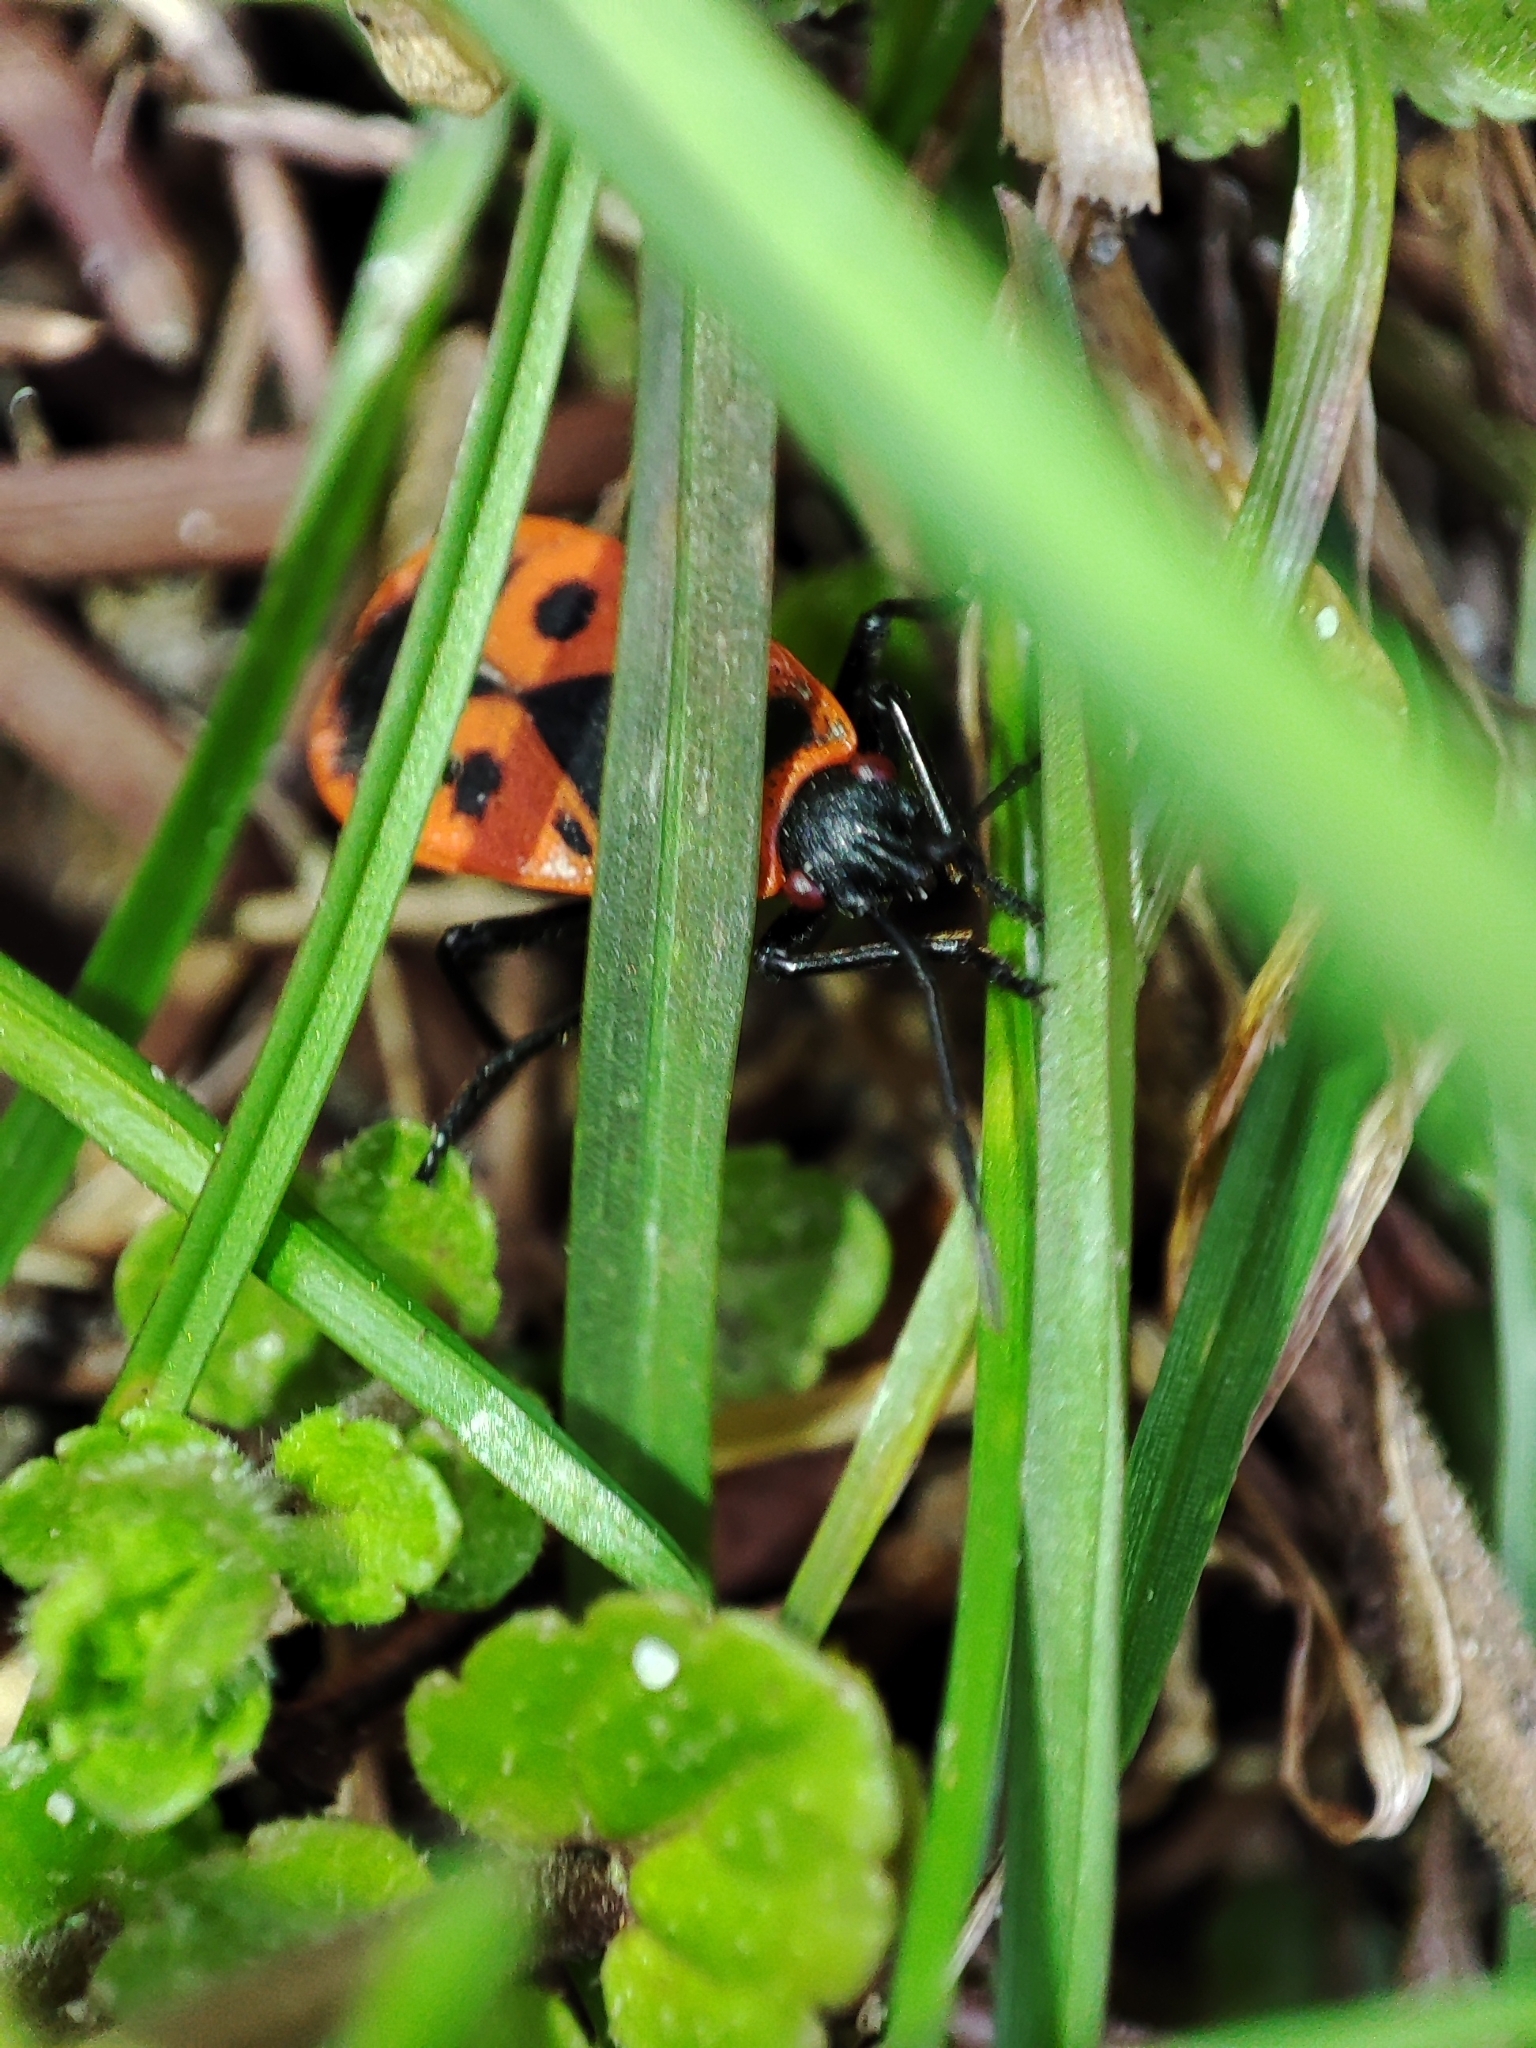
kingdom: Animalia
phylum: Arthropoda
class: Insecta
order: Hemiptera
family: Pyrrhocoridae
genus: Pyrrhocoris
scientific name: Pyrrhocoris apterus
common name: Firebug
